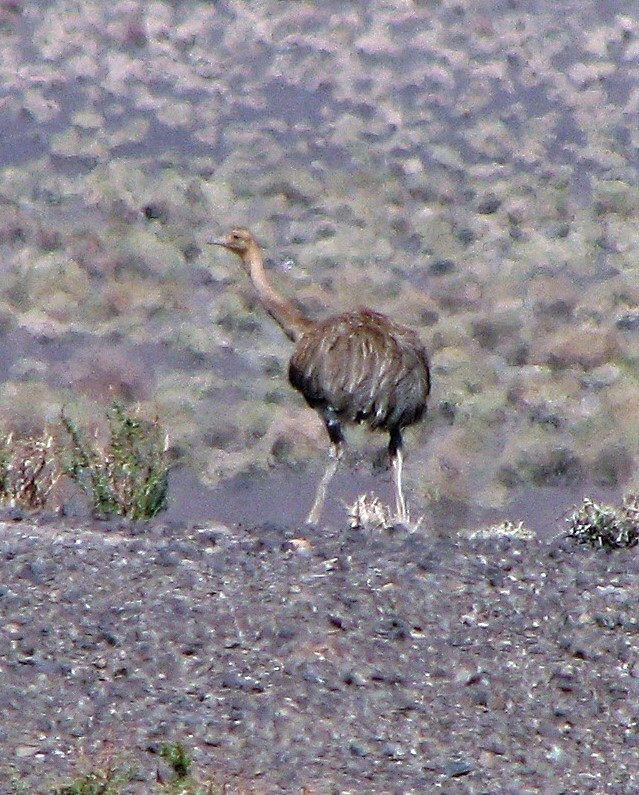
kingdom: Animalia
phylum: Chordata
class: Aves
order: Rheiformes
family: Rheidae
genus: Rhea
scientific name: Rhea pennata
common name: Lesser rhea
